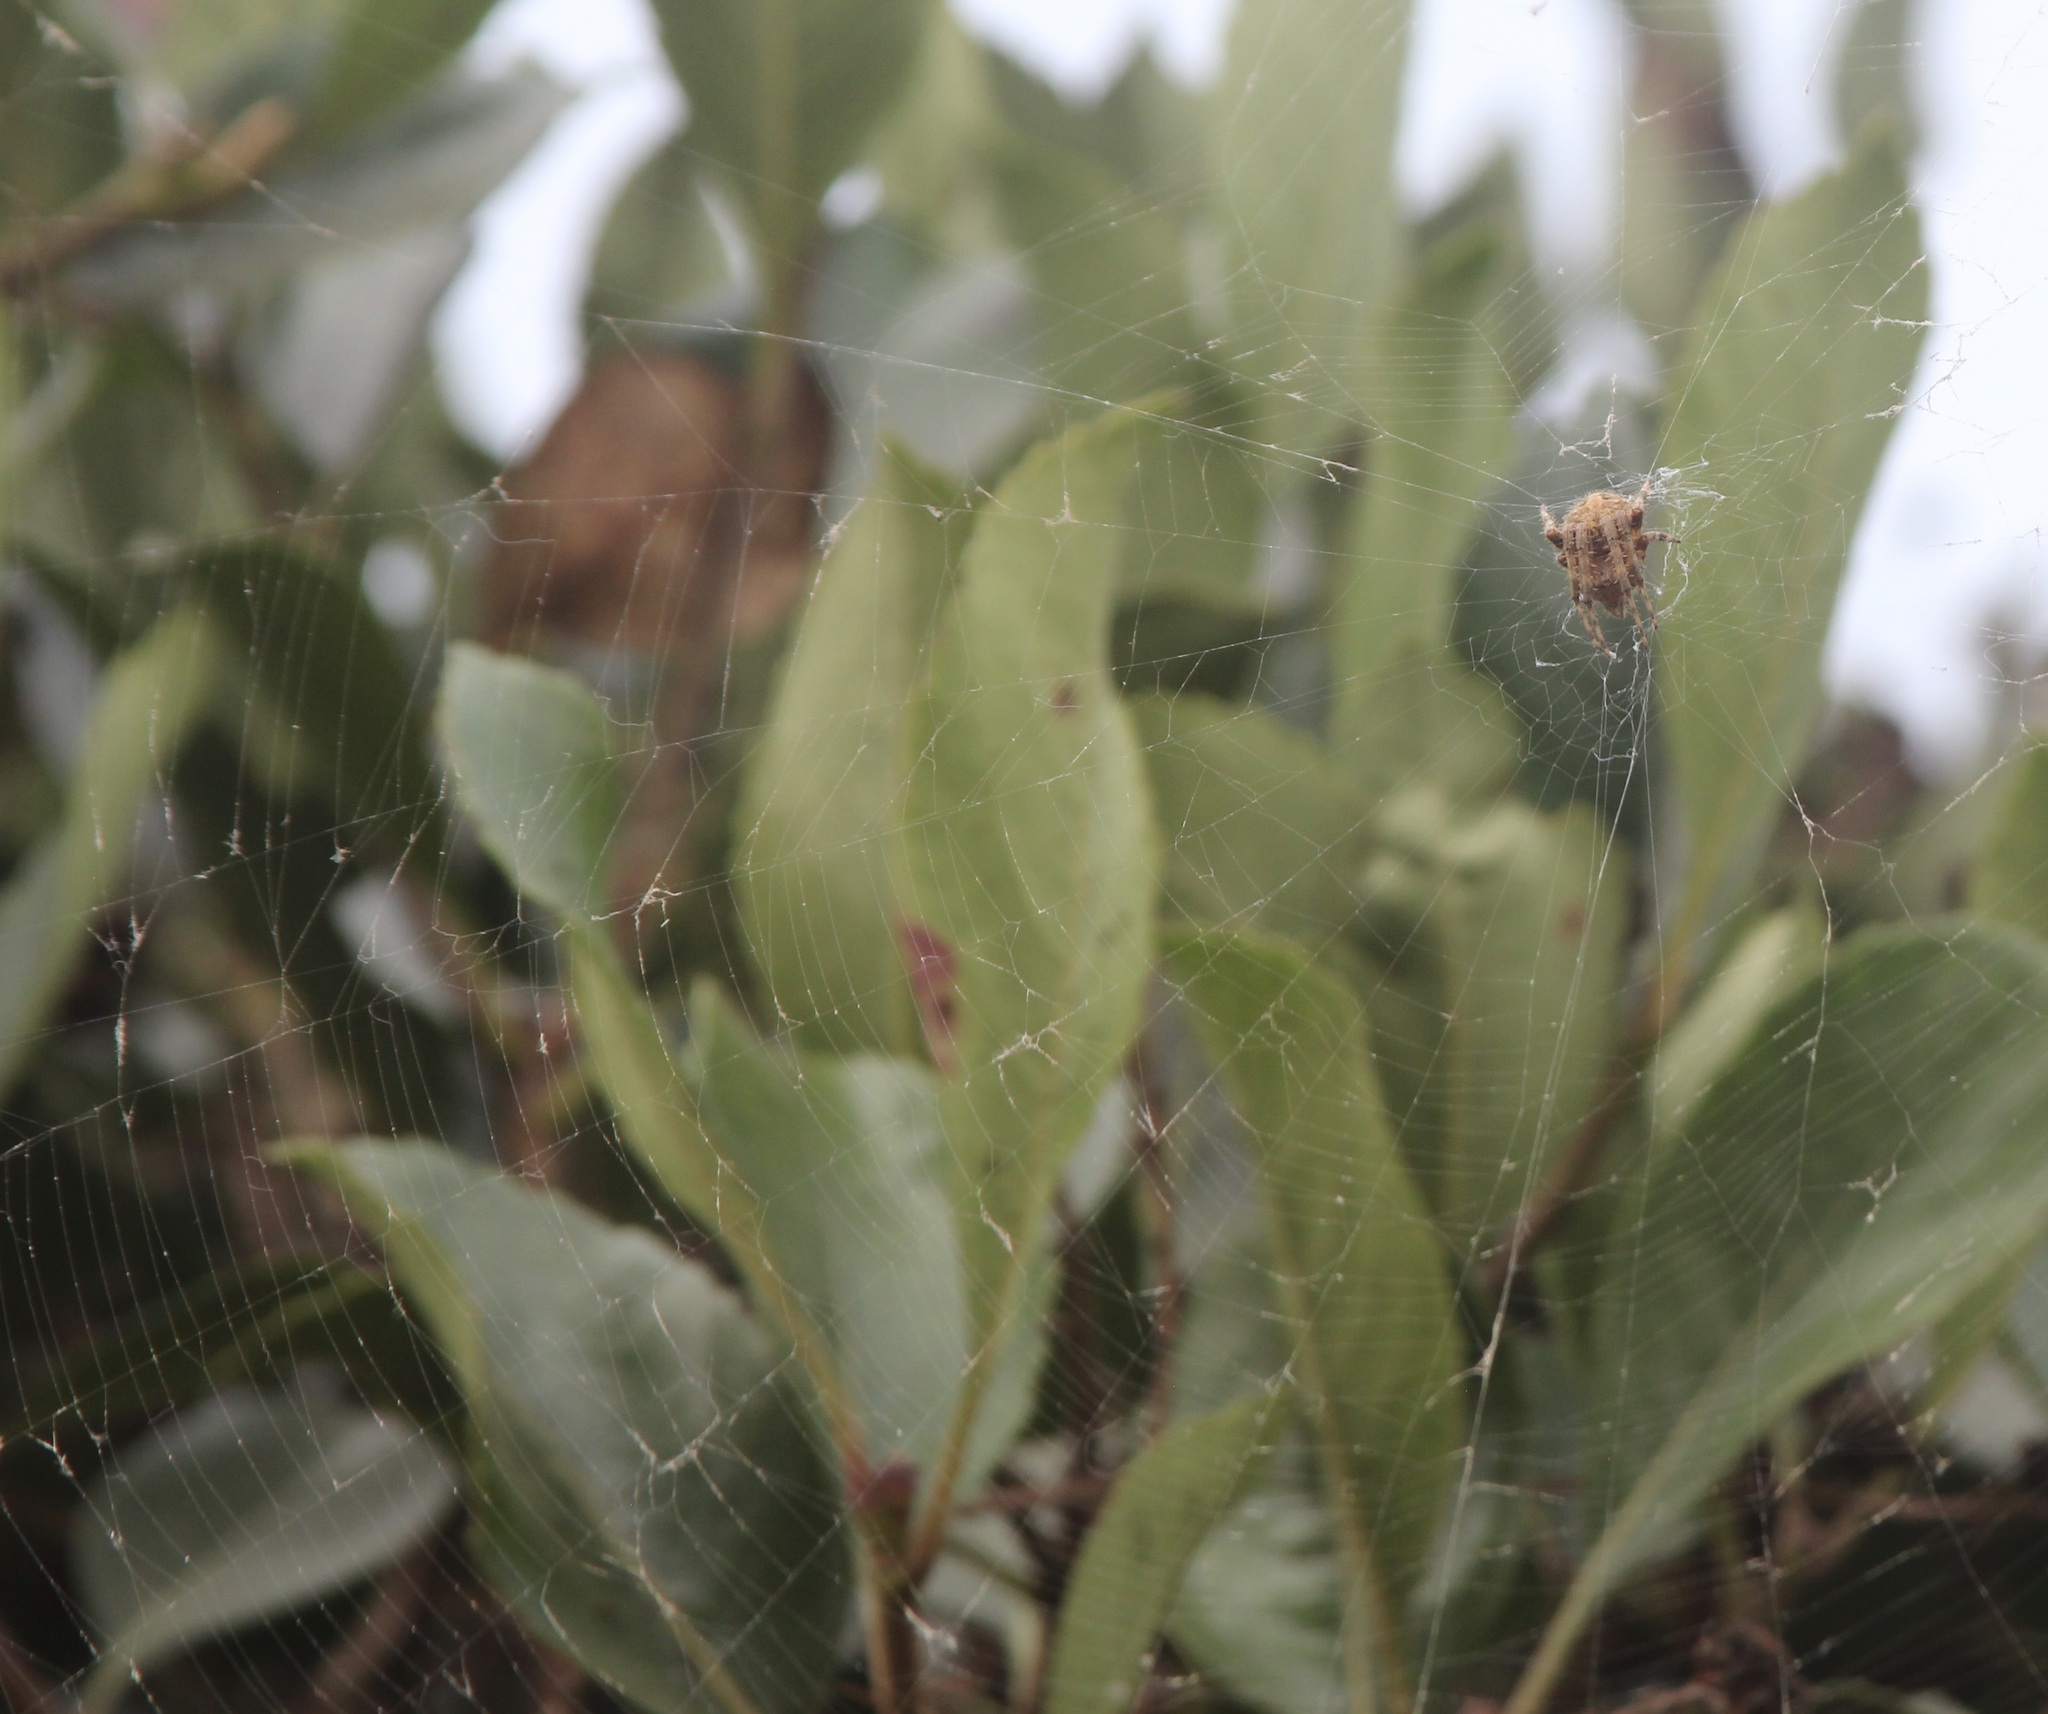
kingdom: Animalia
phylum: Arthropoda
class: Arachnida
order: Araneae
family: Araneidae
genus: Neoscona
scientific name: Neoscona crucifera
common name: Spotted orbweaver
